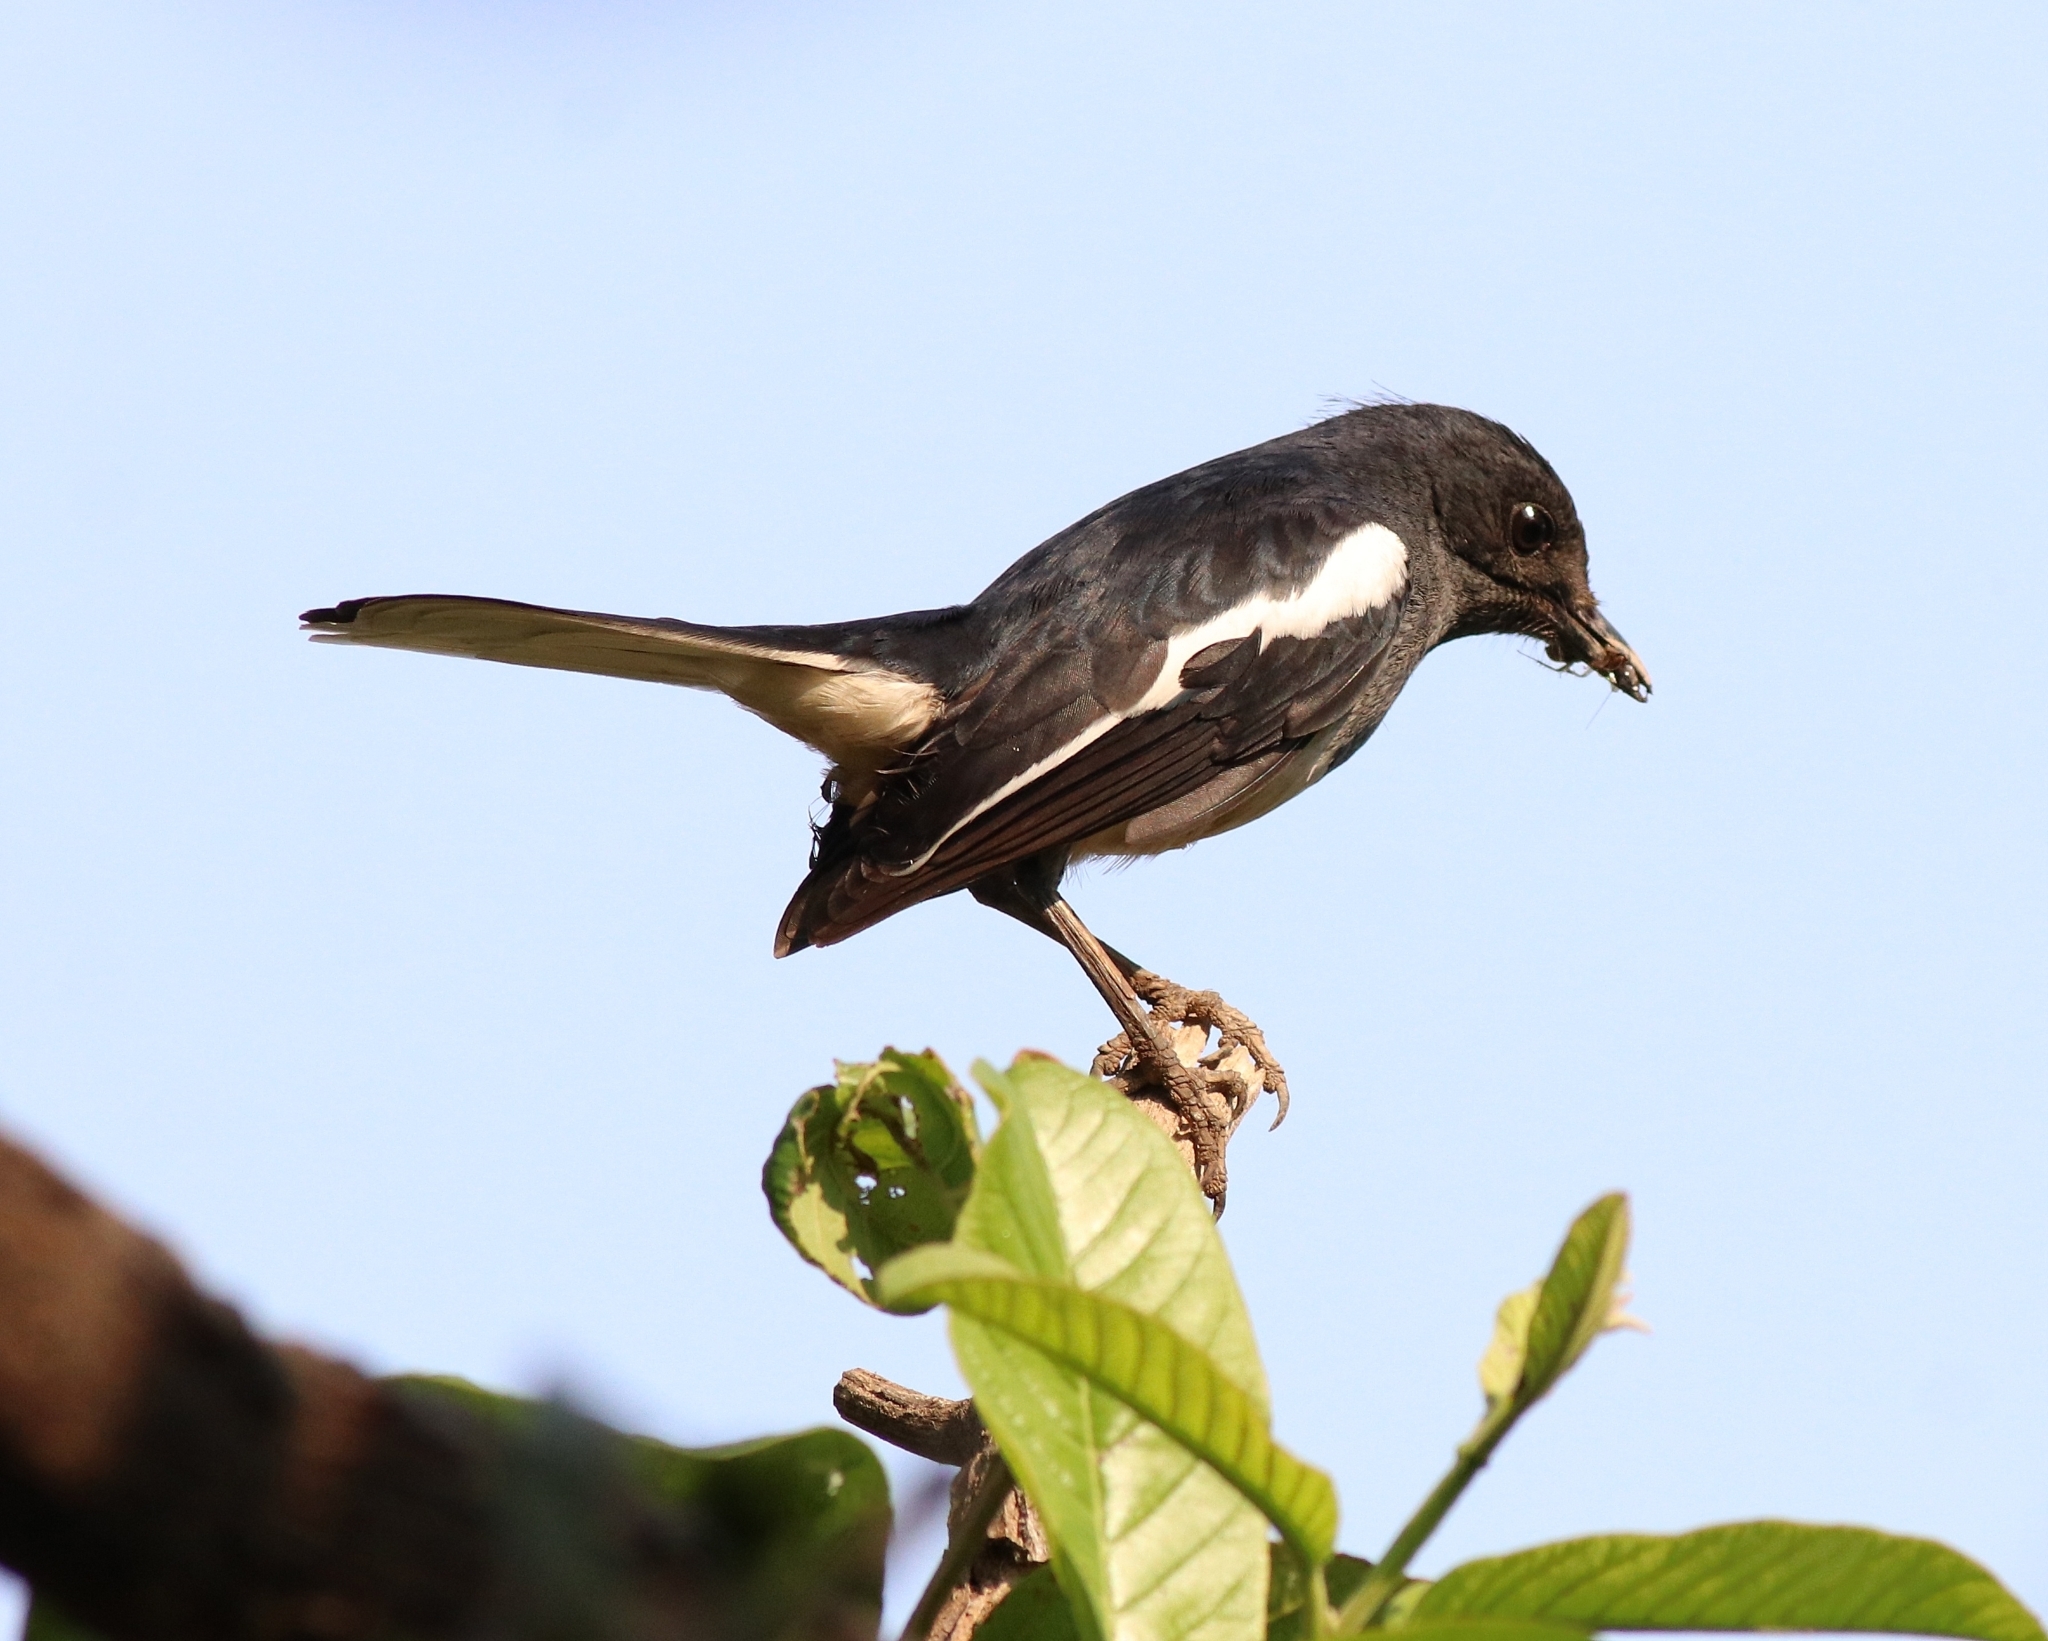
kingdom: Animalia
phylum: Chordata
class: Aves
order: Passeriformes
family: Muscicapidae
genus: Copsychus
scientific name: Copsychus saularis
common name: Oriental magpie-robin
